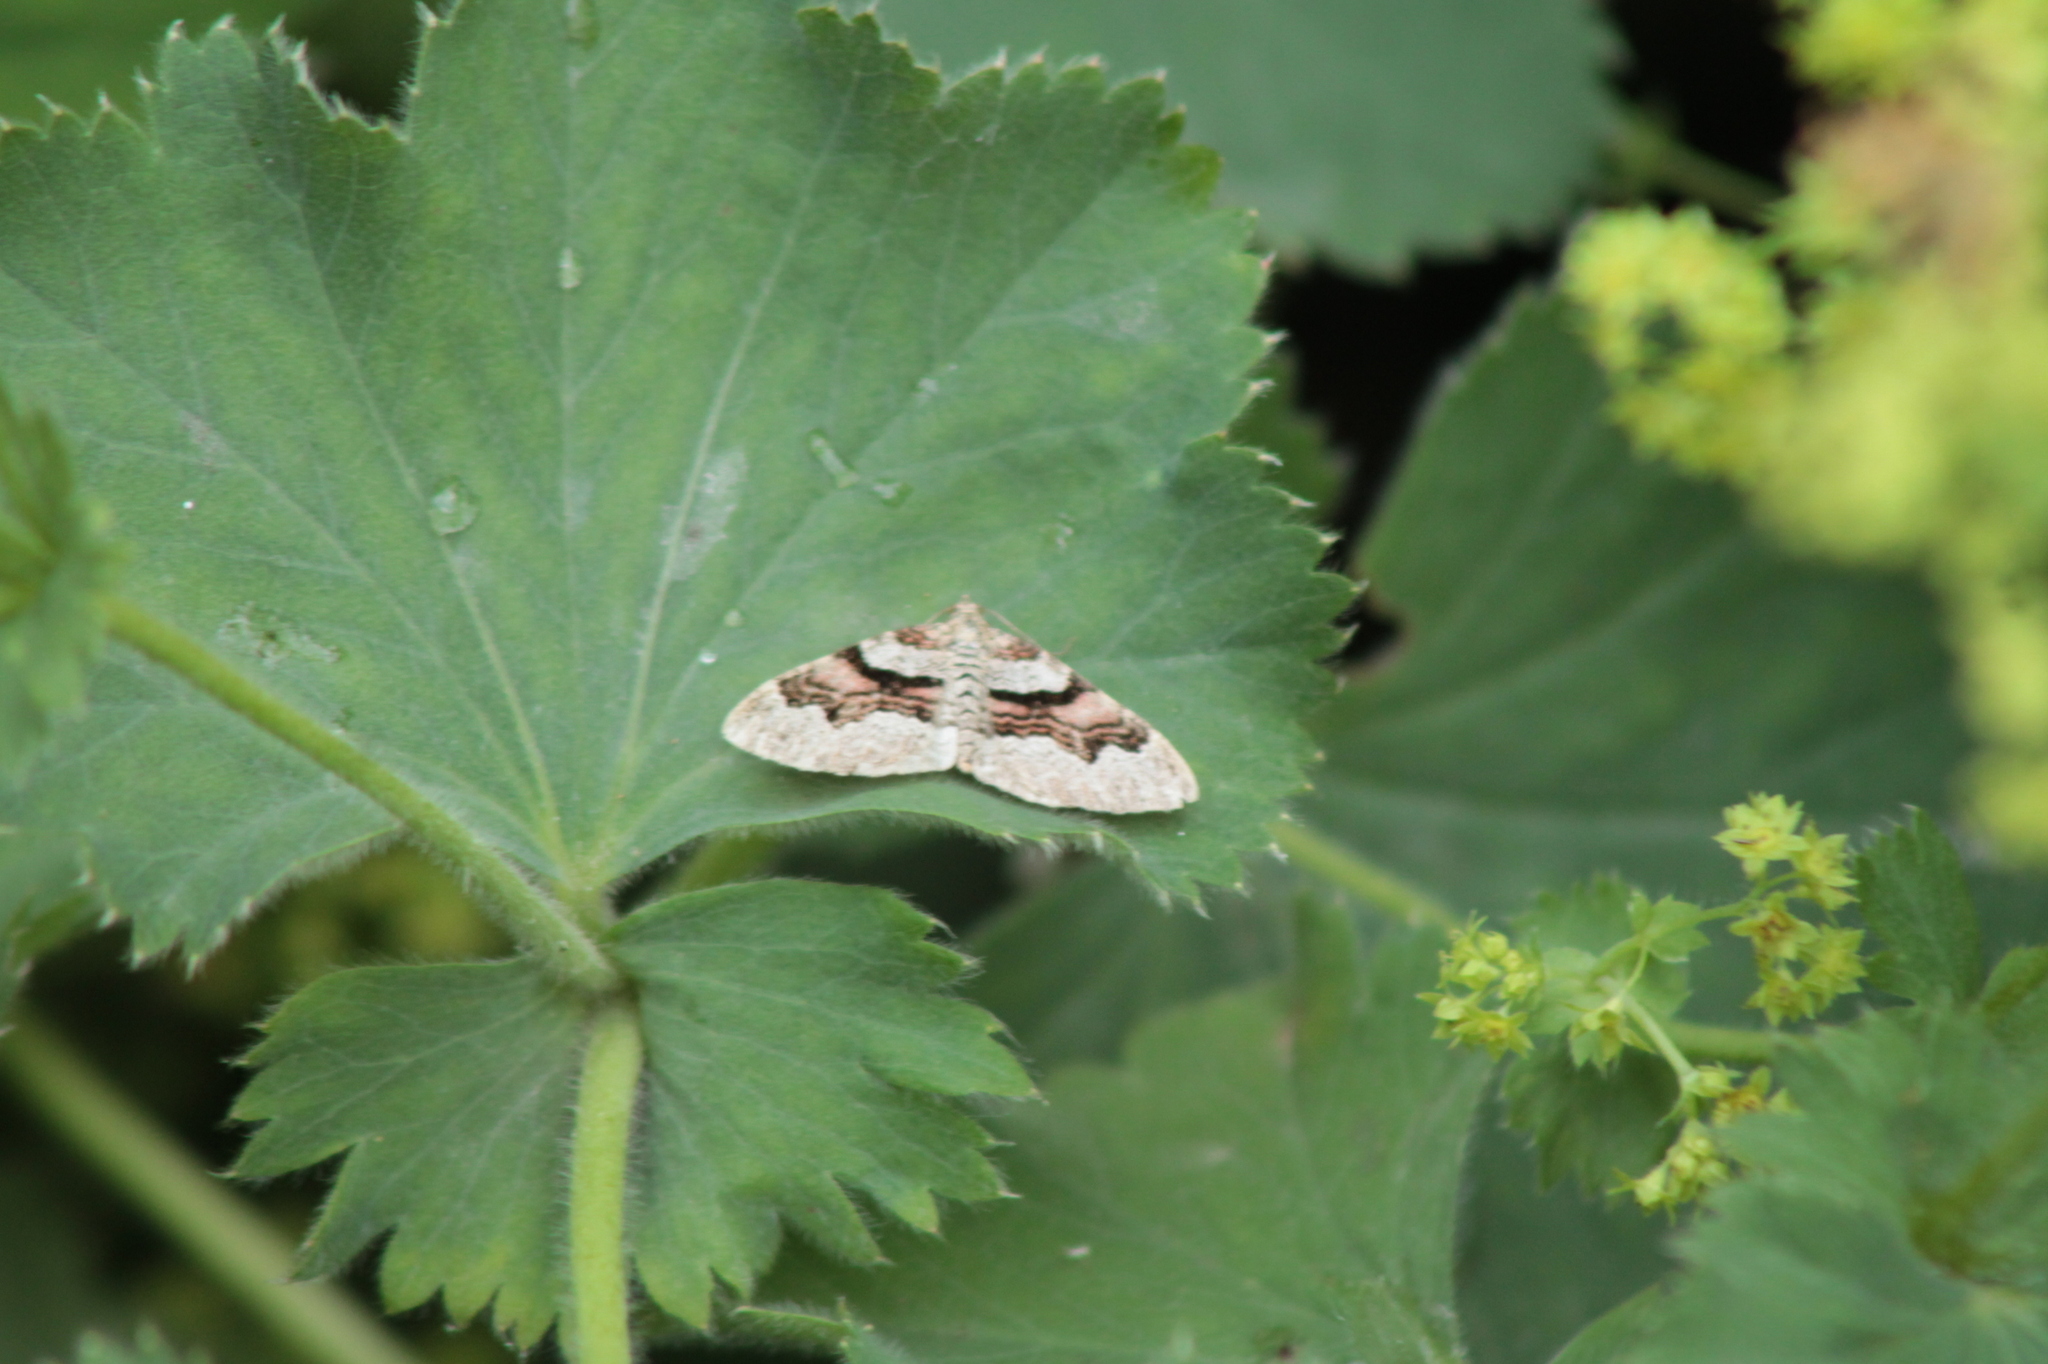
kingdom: Animalia
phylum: Arthropoda
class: Insecta
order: Lepidoptera
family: Geometridae
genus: Xanthorhoe
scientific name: Xanthorhoe designata
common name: Flame carpet
